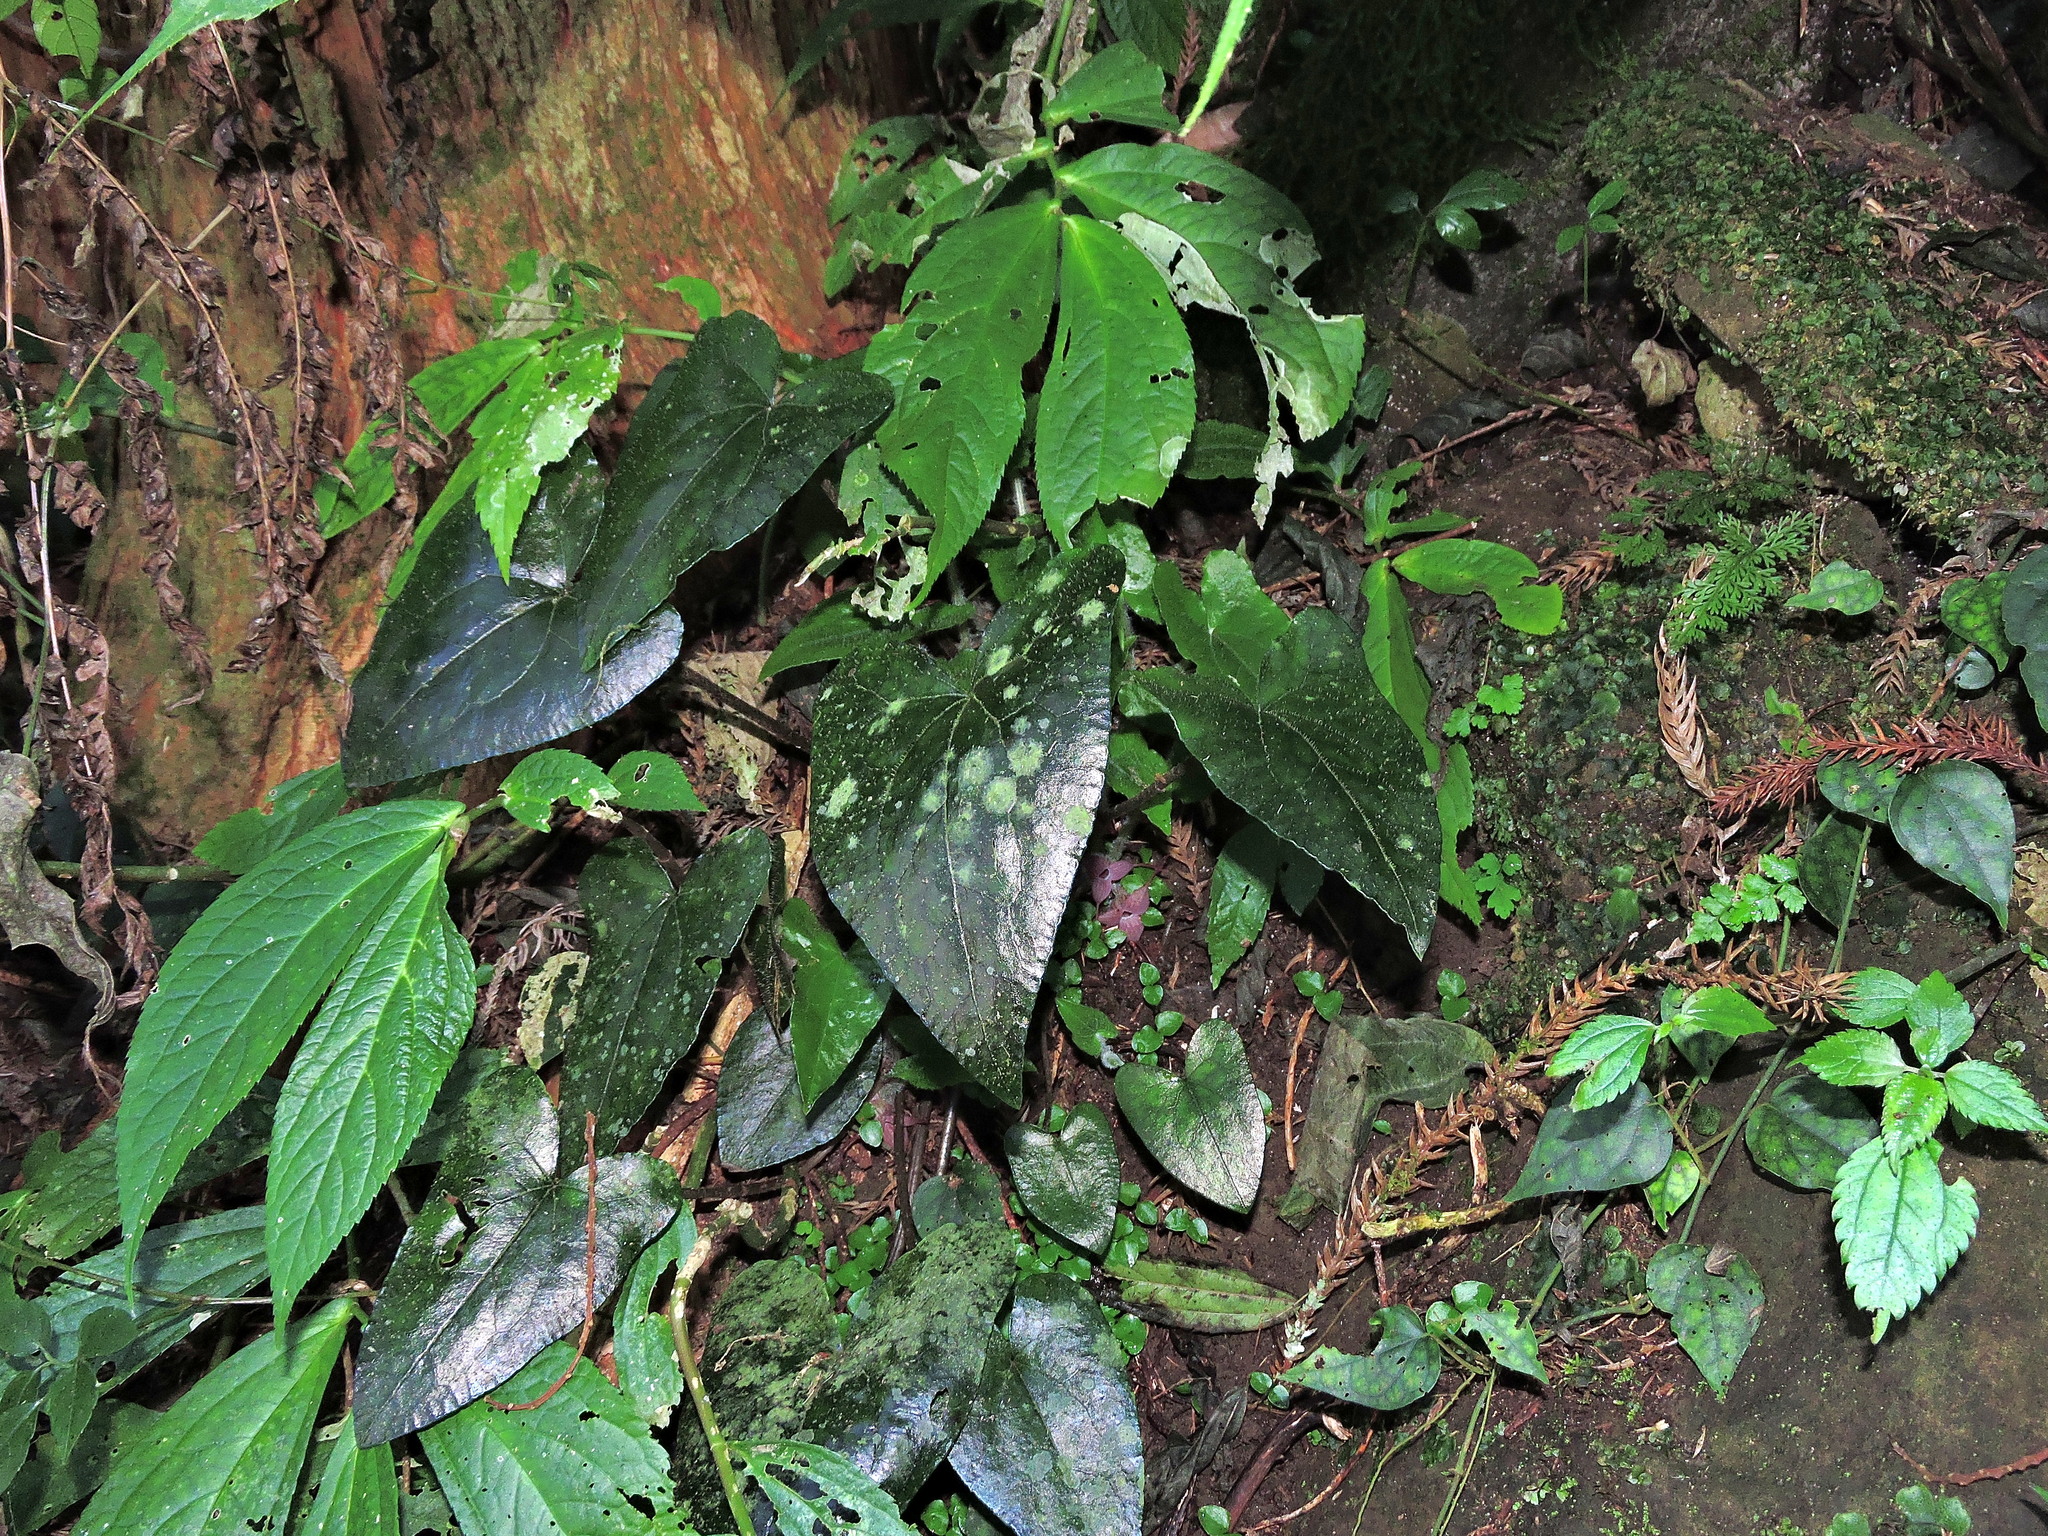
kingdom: Plantae
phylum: Tracheophyta
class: Magnoliopsida
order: Piperales
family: Aristolochiaceae
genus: Asarum
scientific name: Asarum caudigerum
